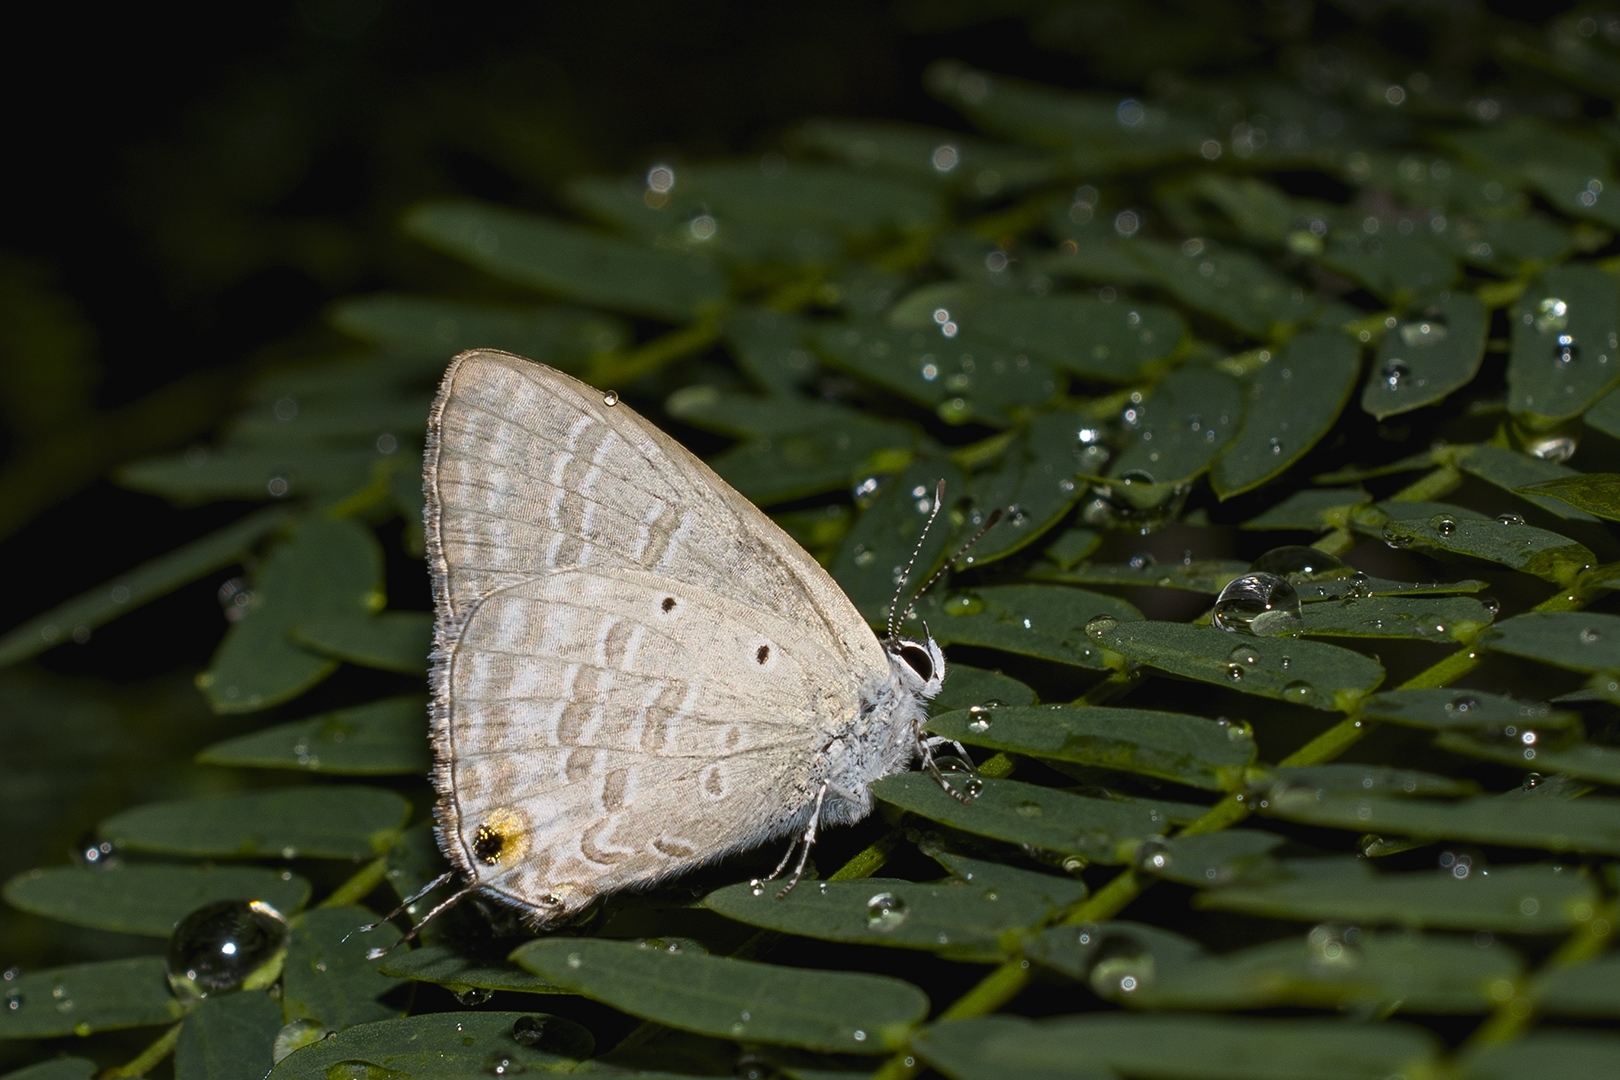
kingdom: Animalia
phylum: Arthropoda
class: Insecta
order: Lepidoptera
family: Lycaenidae
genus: Catochrysops
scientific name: Catochrysops strabo
